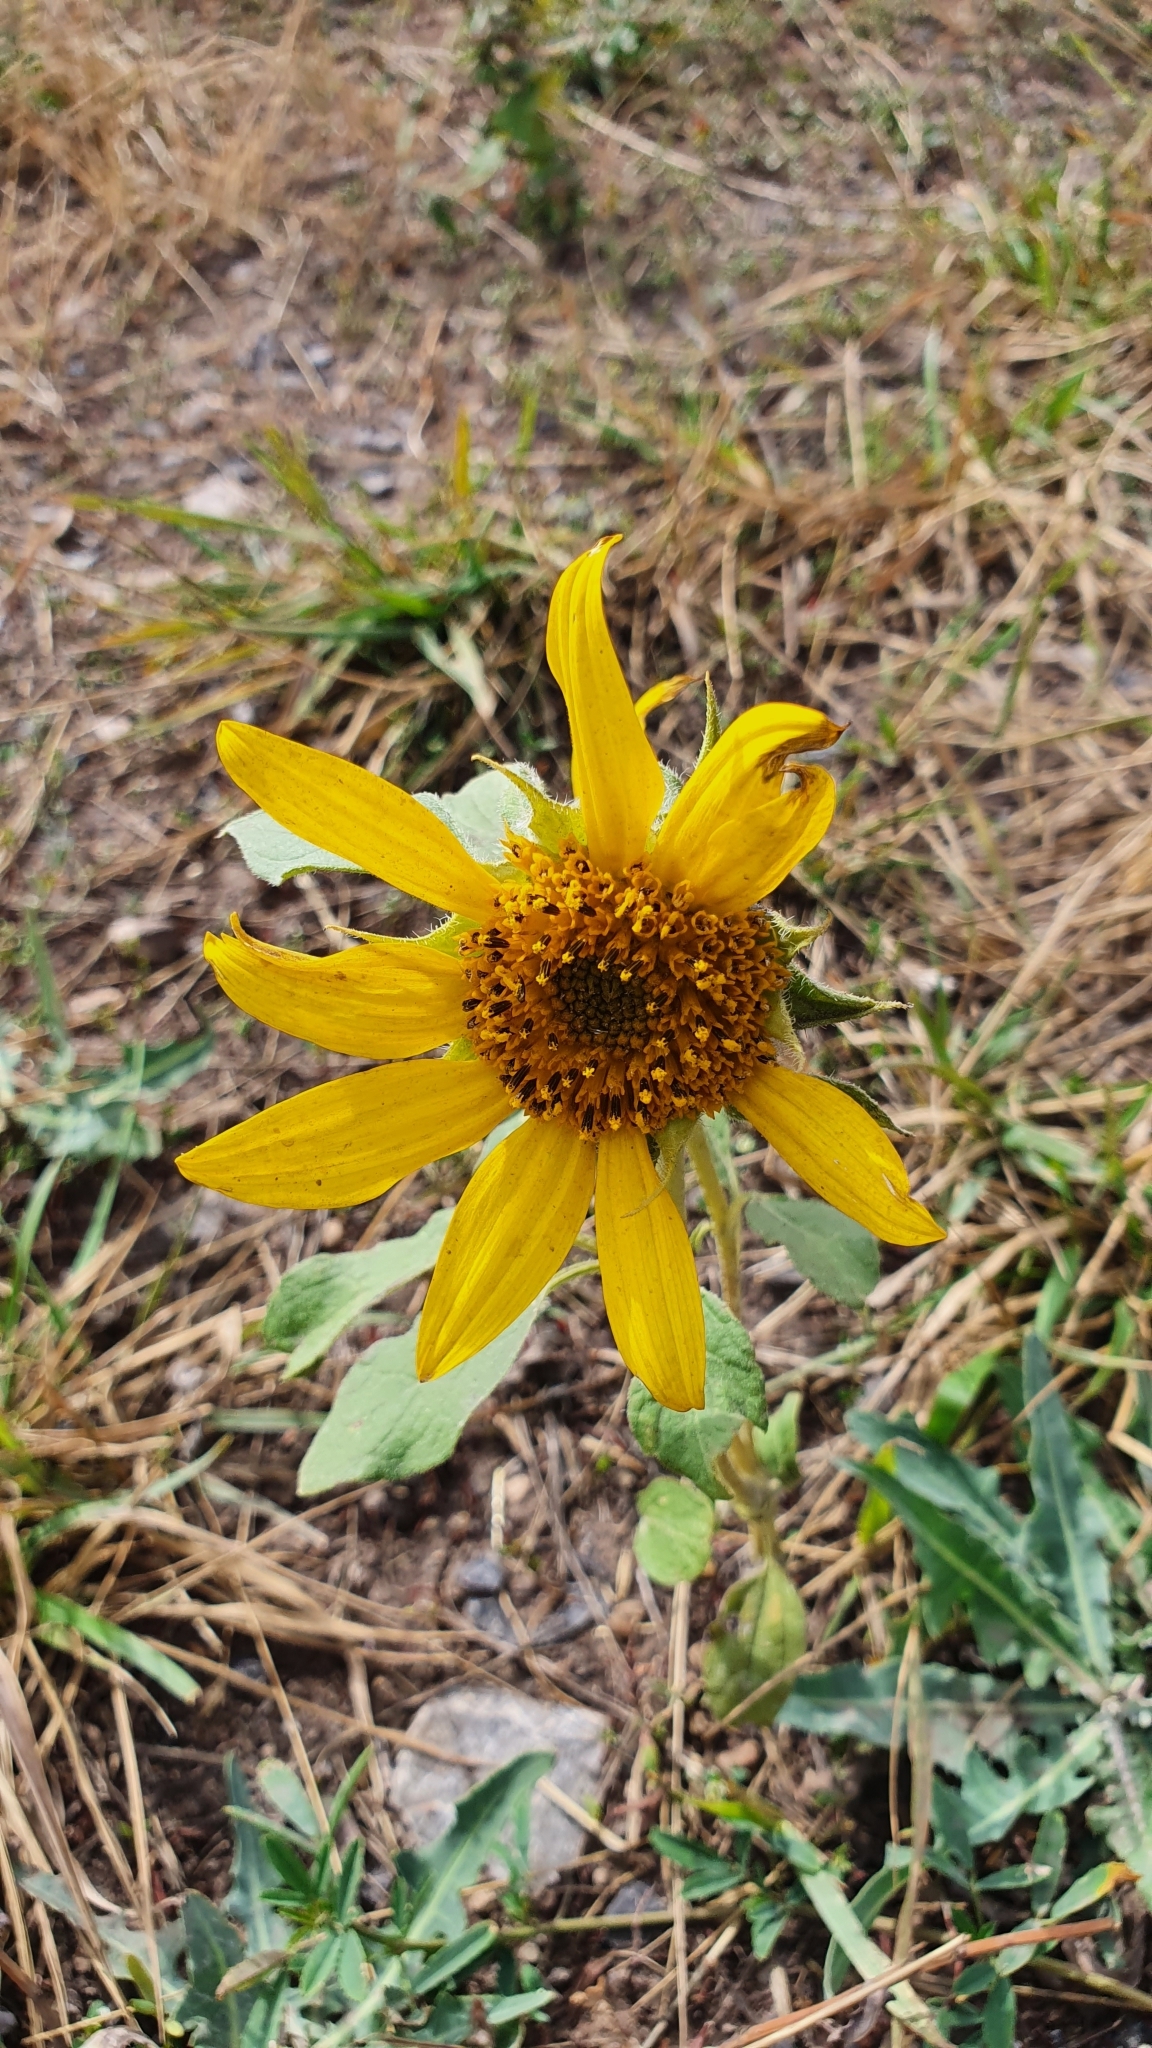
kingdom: Plantae
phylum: Tracheophyta
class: Magnoliopsida
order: Asterales
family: Asteraceae
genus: Helianthus
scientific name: Helianthus annuus
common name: Sunflower
